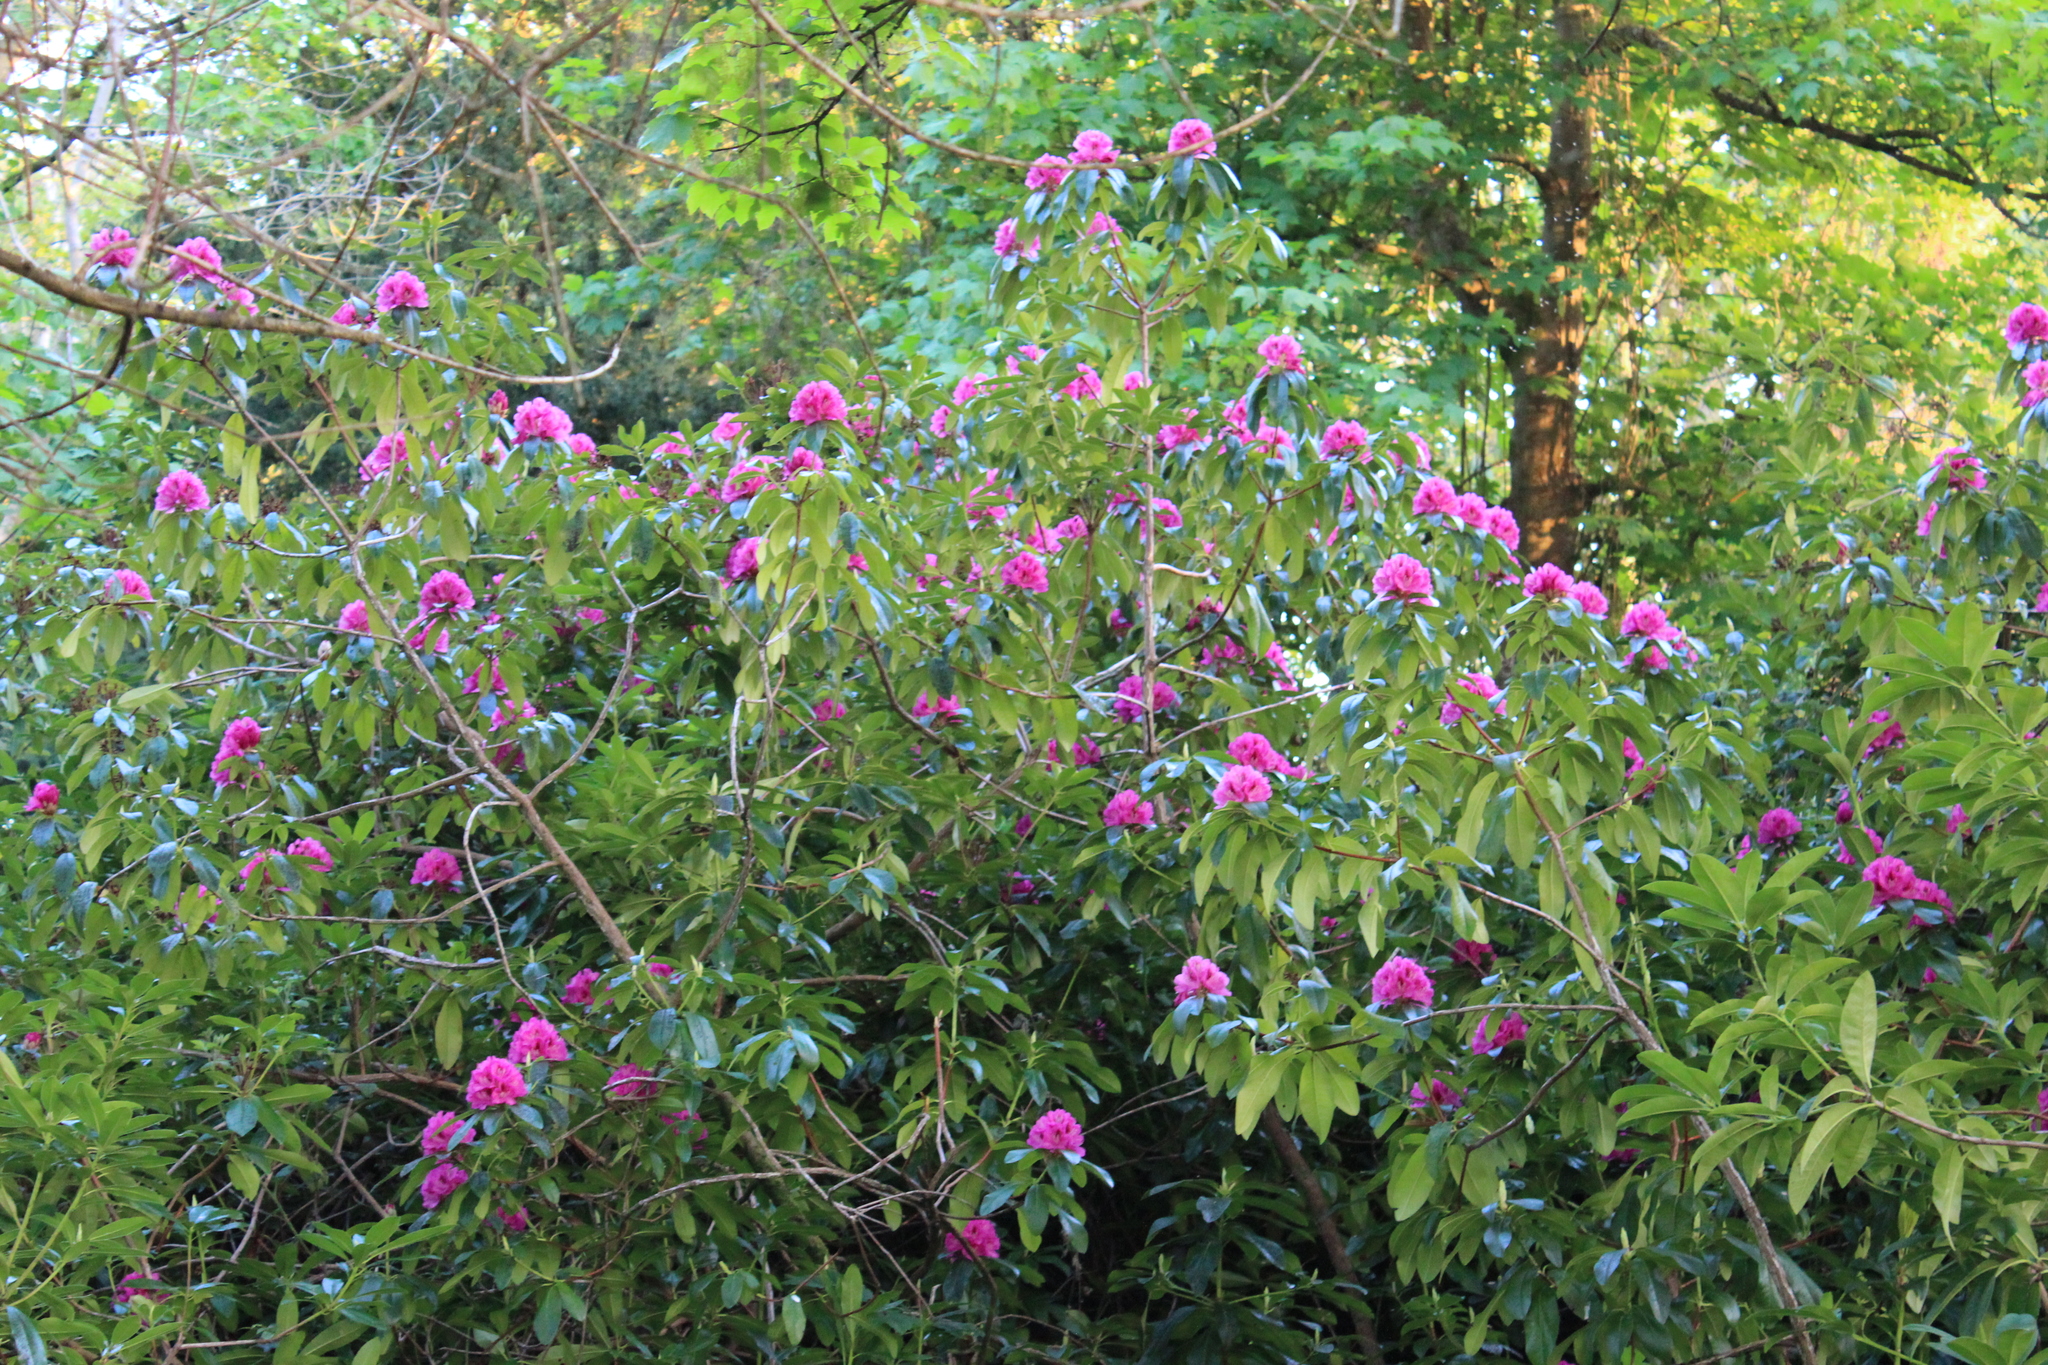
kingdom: Plantae
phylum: Tracheophyta
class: Magnoliopsida
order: Ericales
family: Ericaceae
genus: Rhododendron
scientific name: Rhododendron ponticum
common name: Rhododendron
